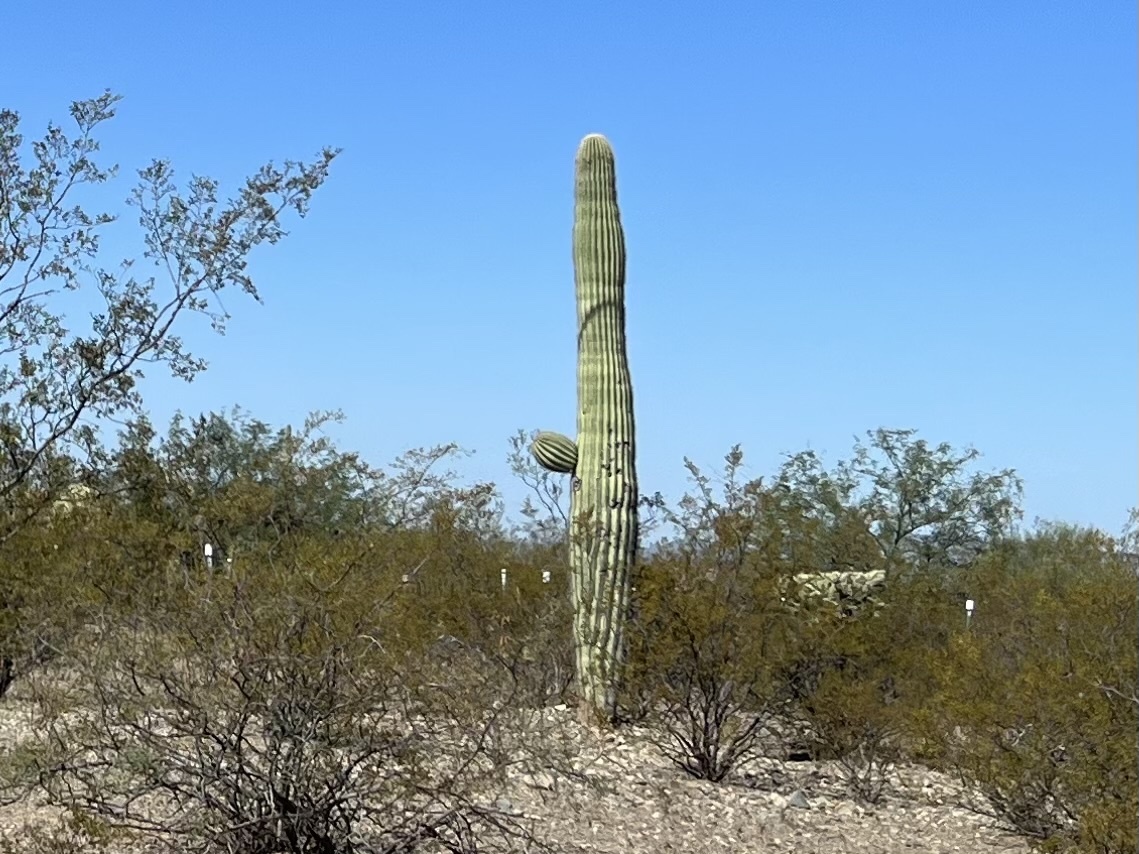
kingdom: Plantae
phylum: Tracheophyta
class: Magnoliopsida
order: Caryophyllales
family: Cactaceae
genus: Carnegiea
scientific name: Carnegiea gigantea
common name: Saguaro
